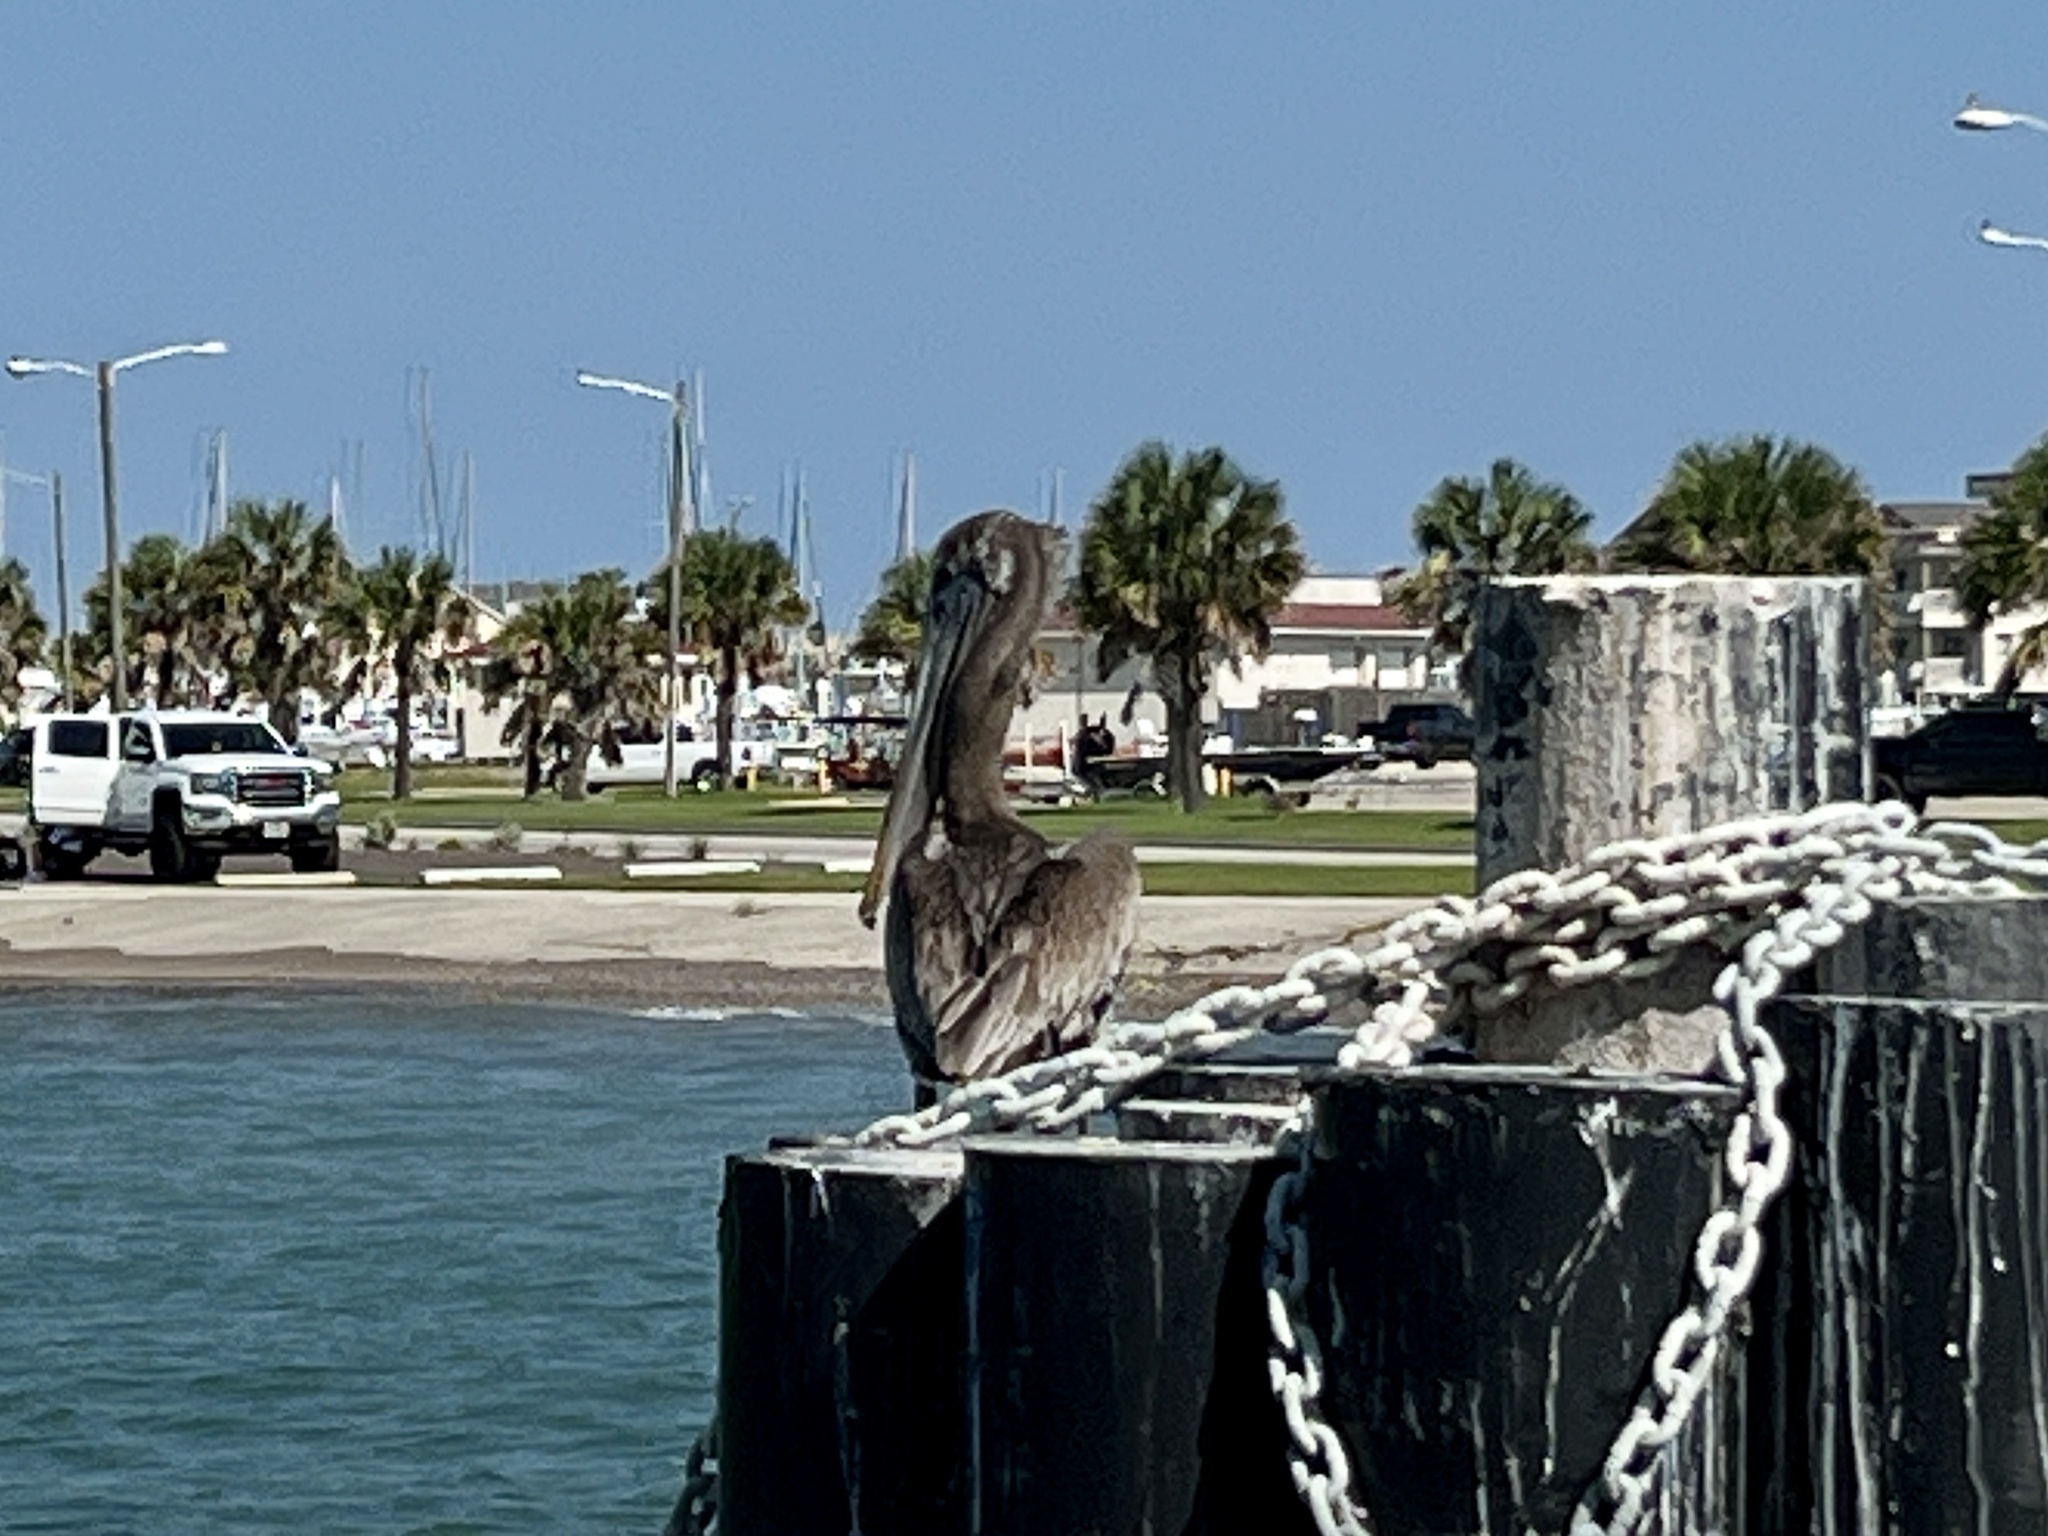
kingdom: Animalia
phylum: Chordata
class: Aves
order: Pelecaniformes
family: Pelecanidae
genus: Pelecanus
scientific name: Pelecanus occidentalis
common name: Brown pelican
